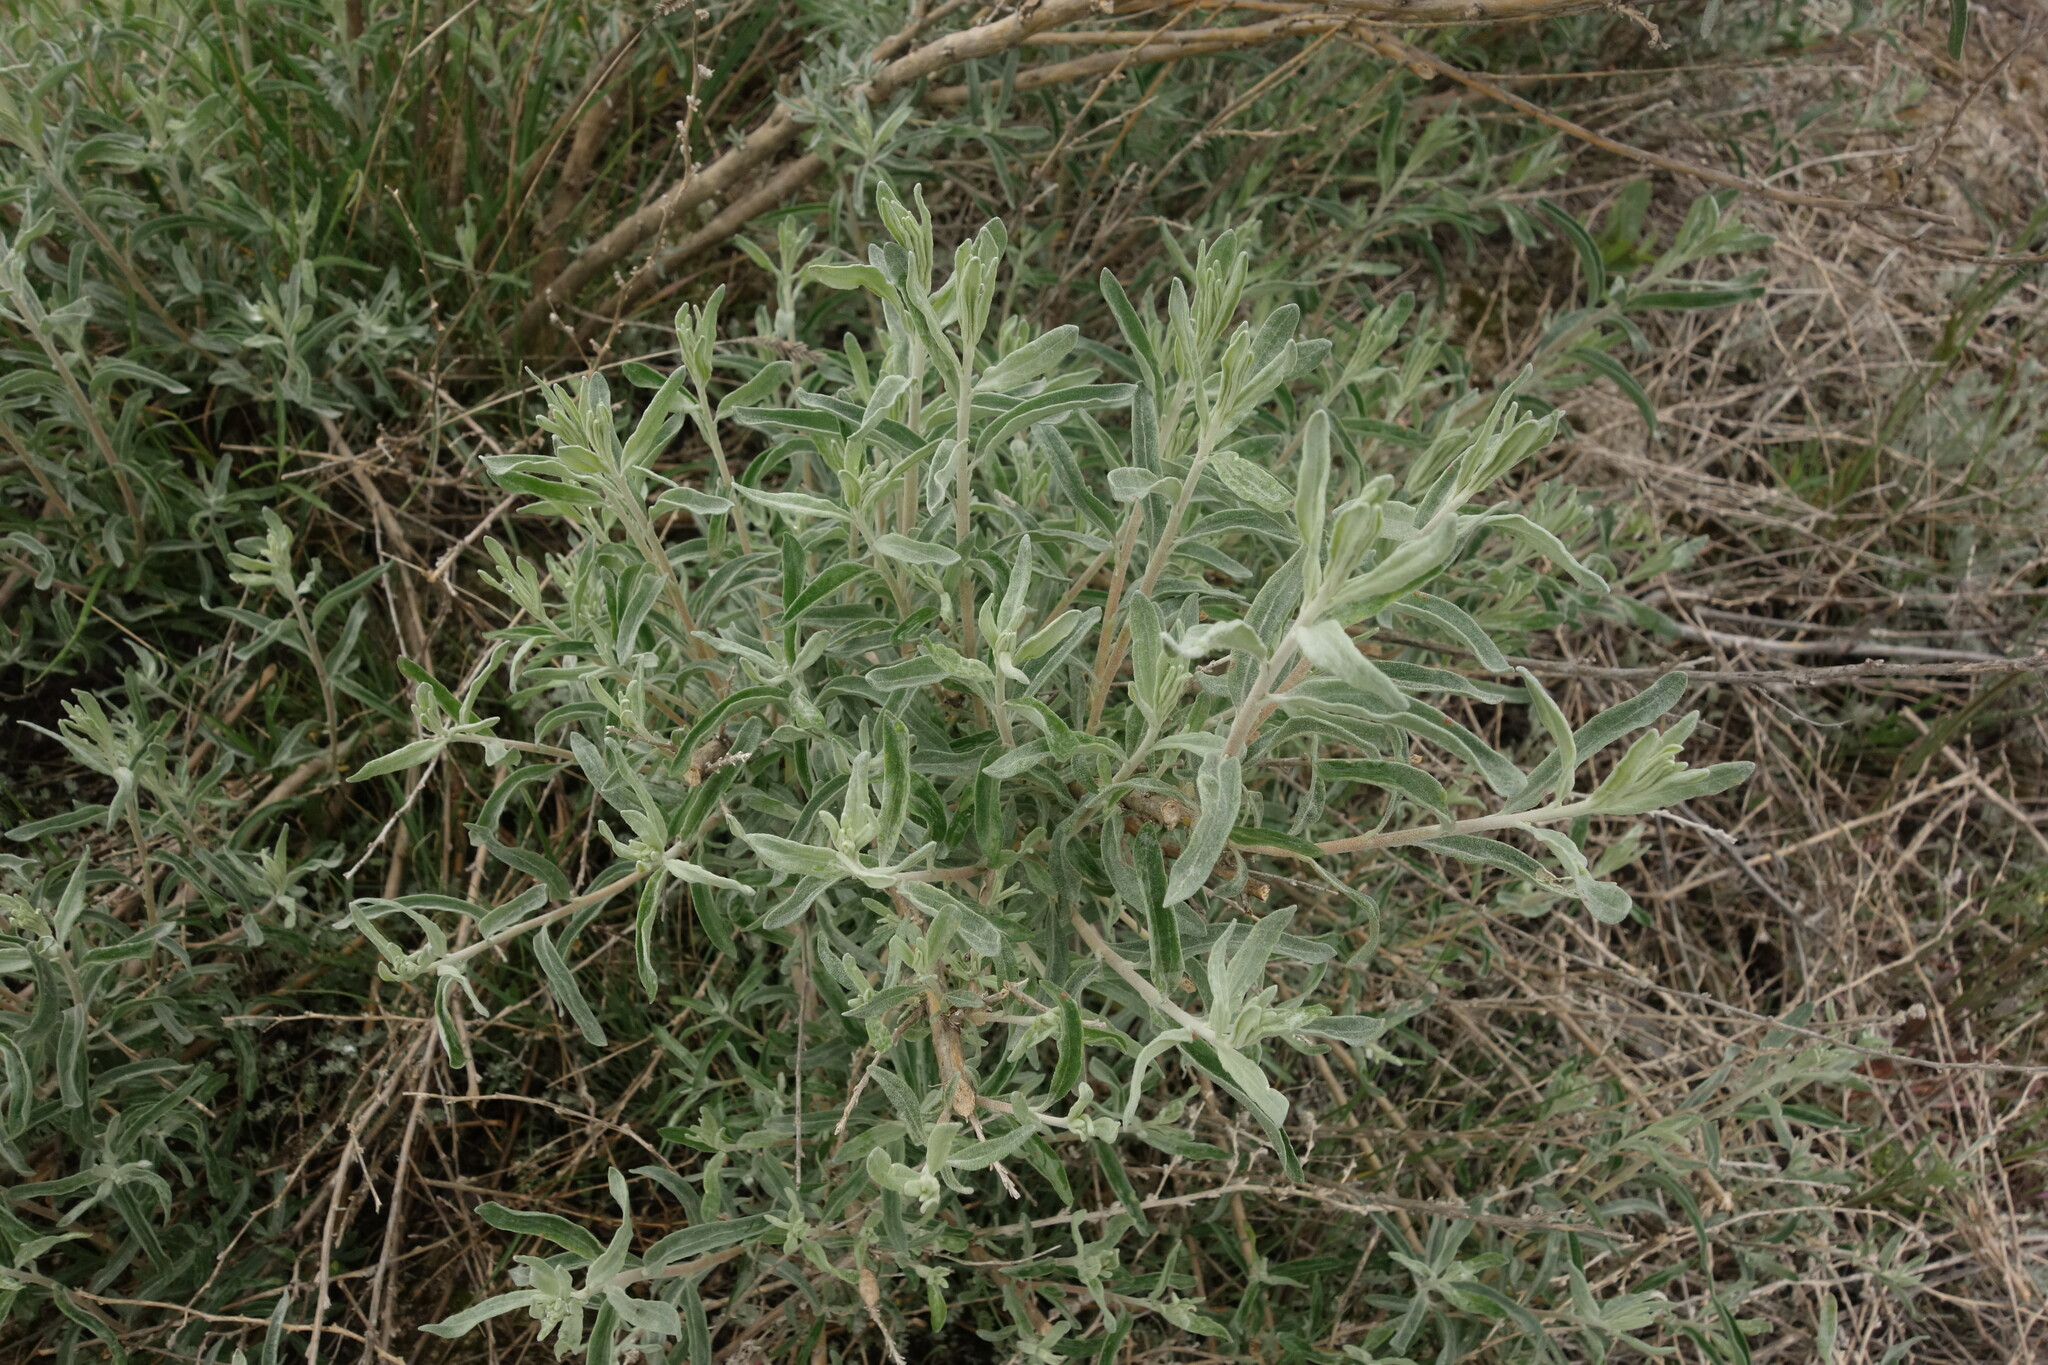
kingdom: Plantae
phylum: Tracheophyta
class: Magnoliopsida
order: Caryophyllales
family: Amaranthaceae
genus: Krascheninnikovia
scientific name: Krascheninnikovia ceratoides
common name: Pamirian winterfat
